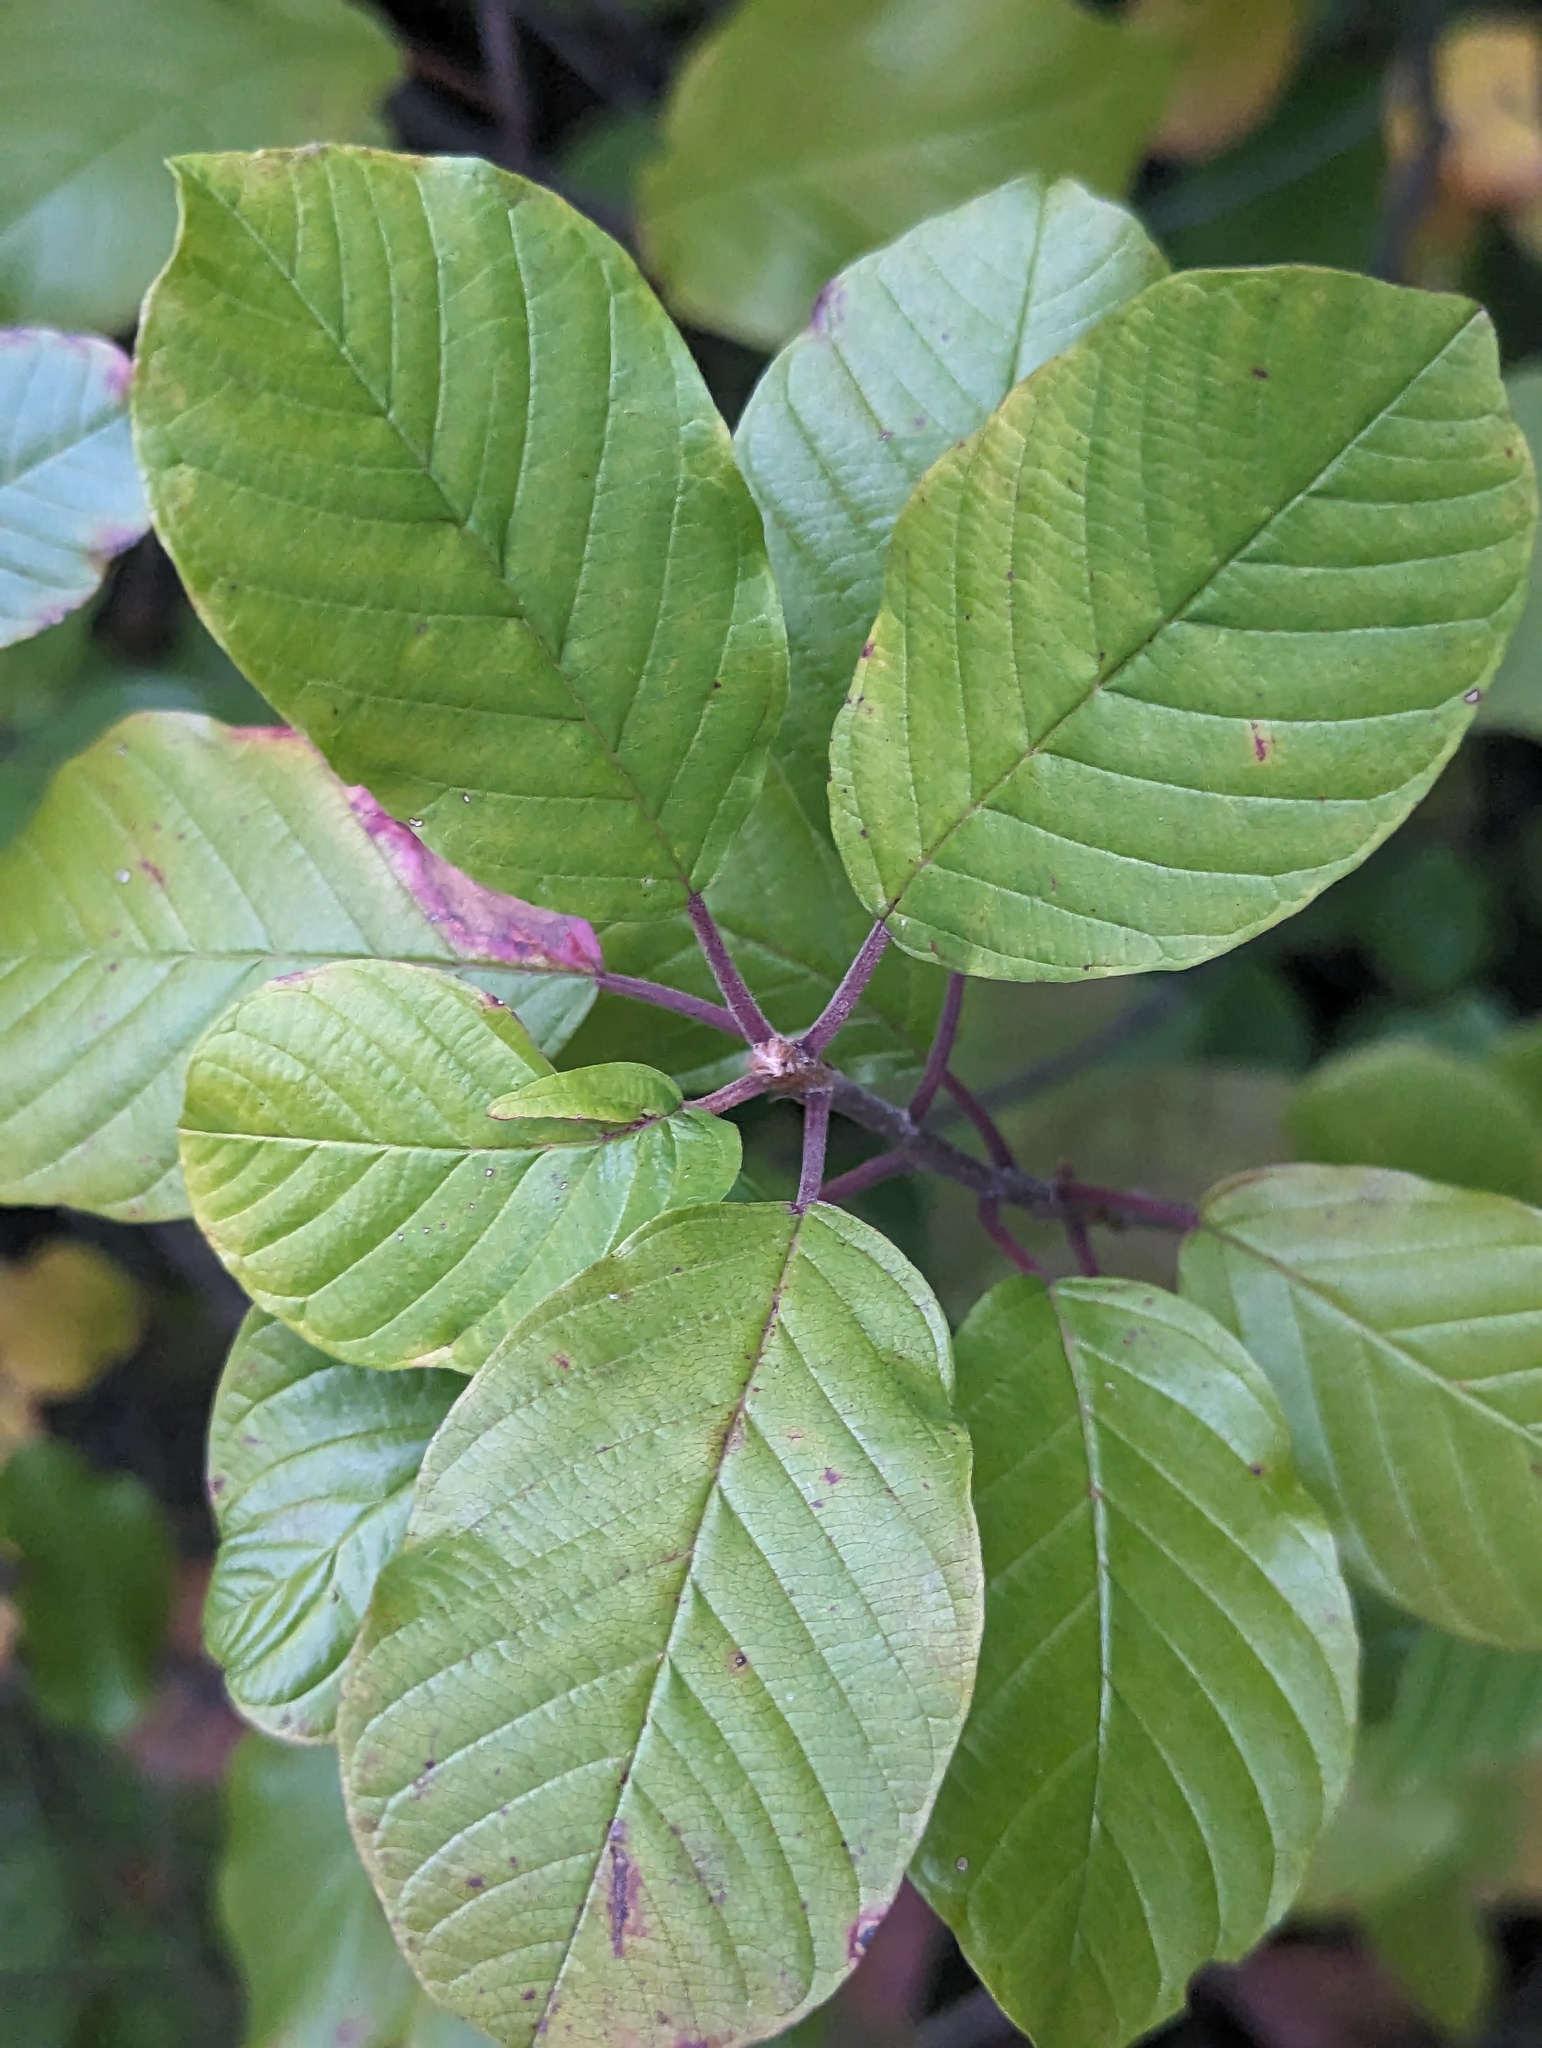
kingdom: Plantae
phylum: Tracheophyta
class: Magnoliopsida
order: Rosales
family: Rhamnaceae
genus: Frangula
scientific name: Frangula alnus
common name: Alder buckthorn
